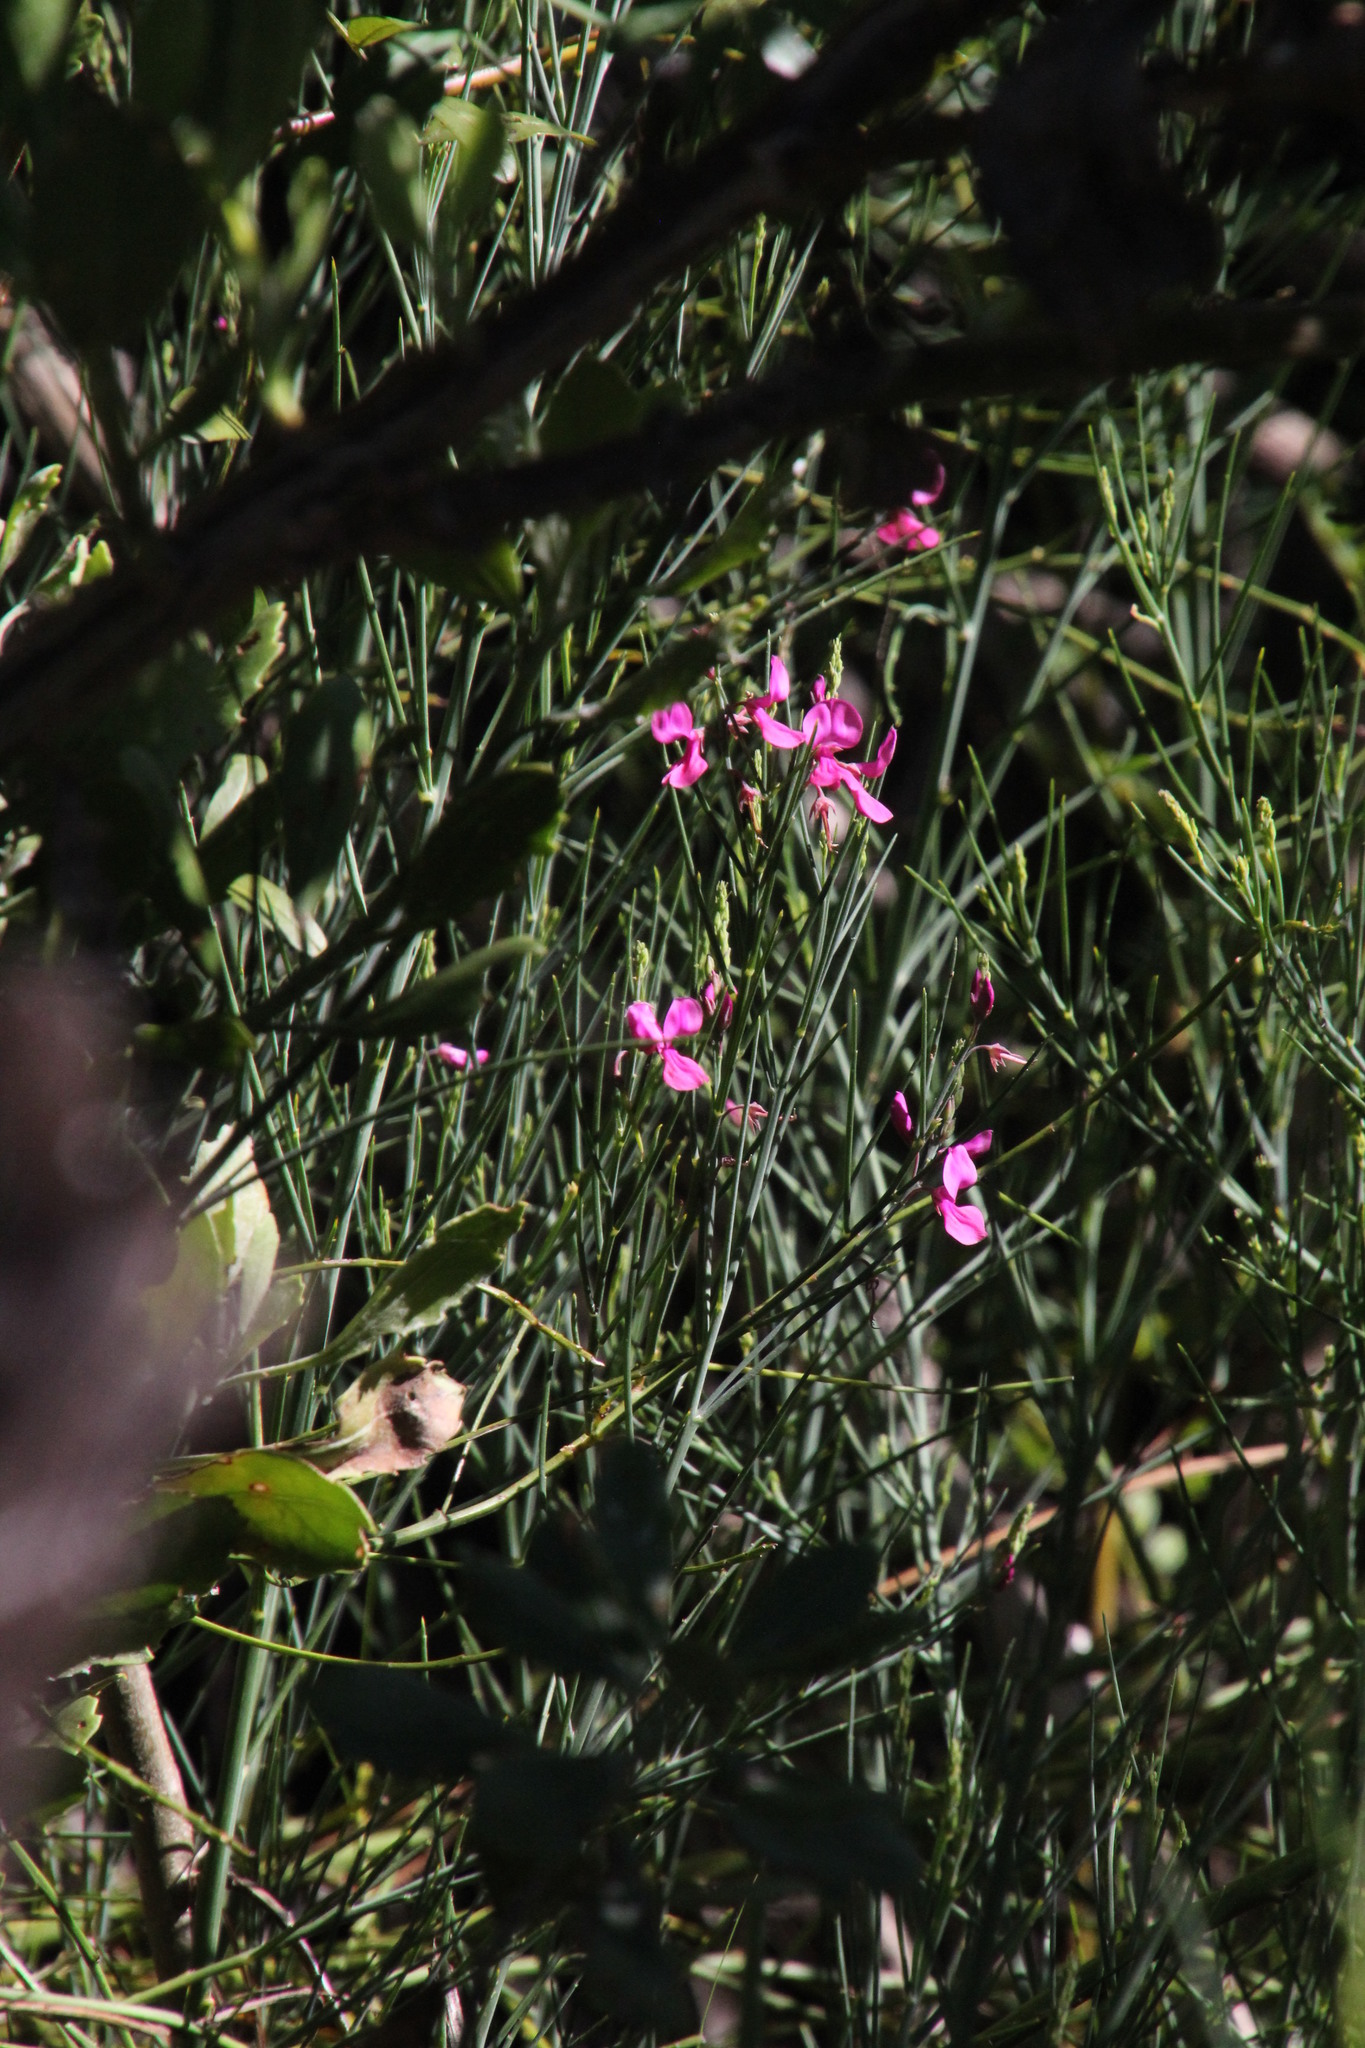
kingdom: Plantae
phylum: Tracheophyta
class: Magnoliopsida
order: Fabales
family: Fabaceae
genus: Indigofera
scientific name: Indigofera filifolia
